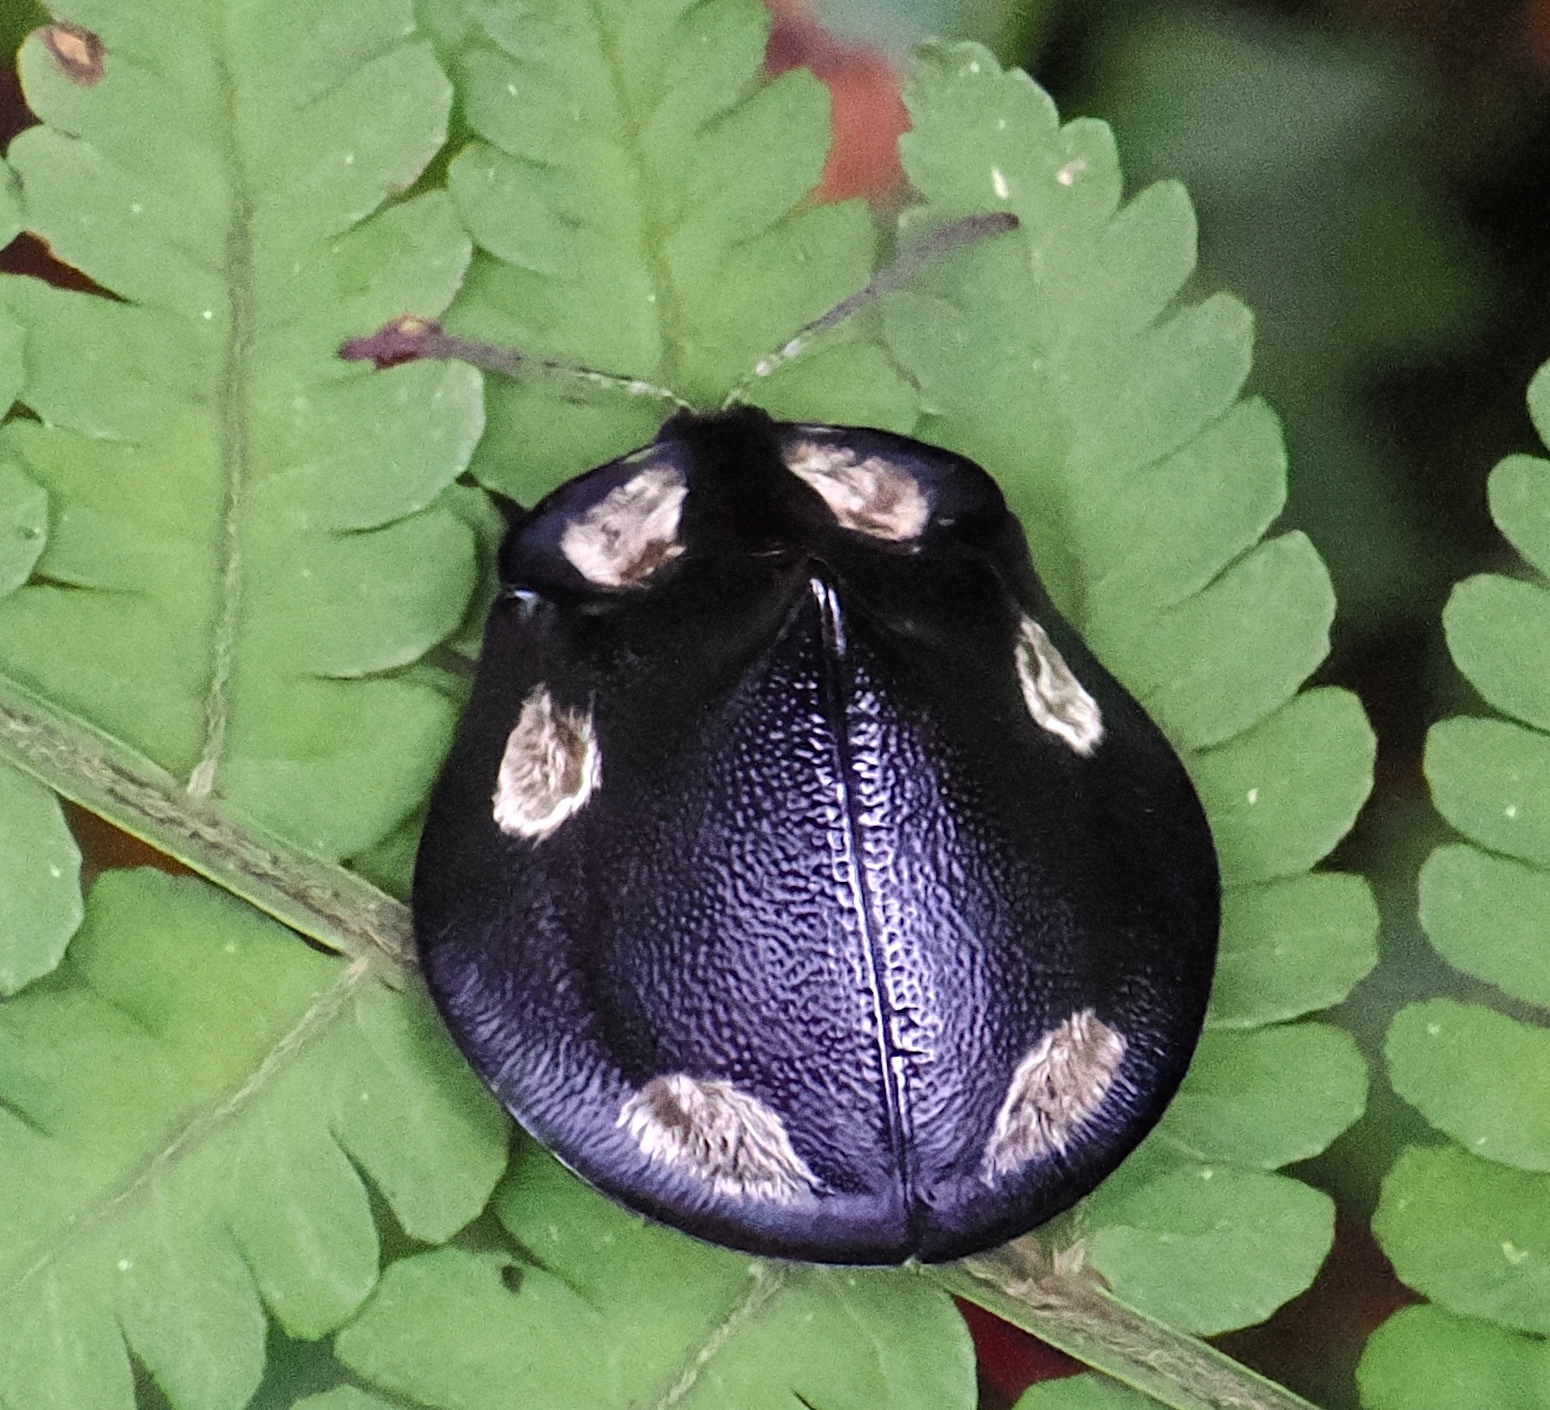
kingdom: Animalia
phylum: Arthropoda
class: Insecta
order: Coleoptera
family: Chrysomelidae
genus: Mesomphalia
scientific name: Mesomphalia turrita
